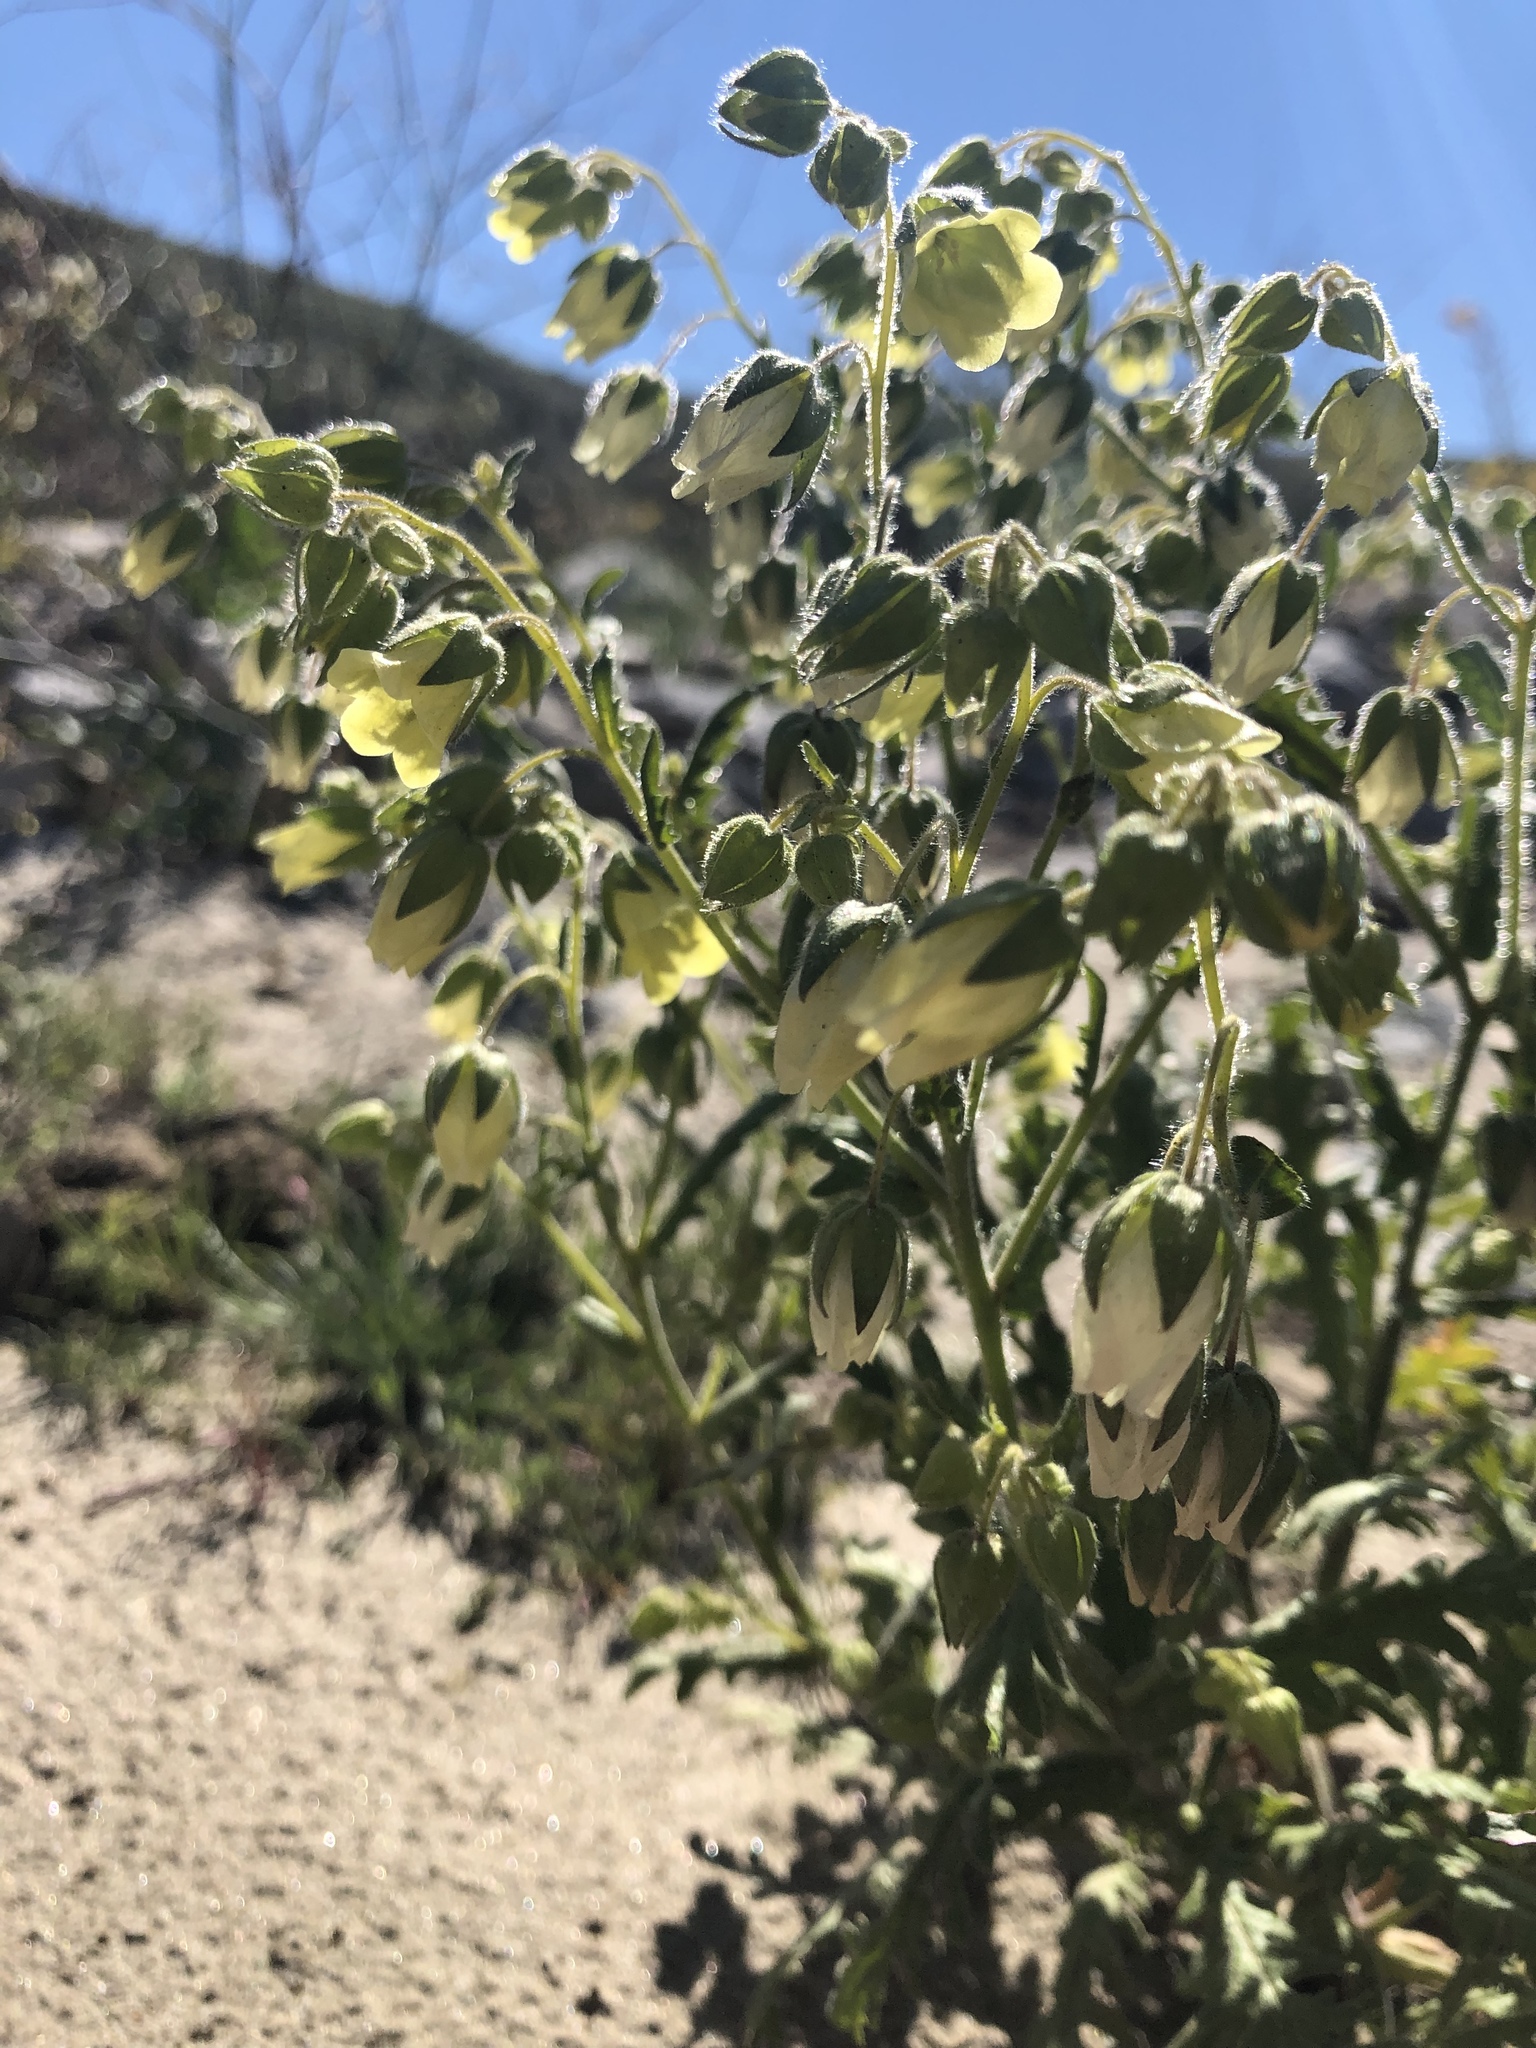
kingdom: Plantae
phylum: Tracheophyta
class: Magnoliopsida
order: Boraginales
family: Hydrophyllaceae
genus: Emmenanthe
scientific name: Emmenanthe penduliflora
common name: Whispering-bells
